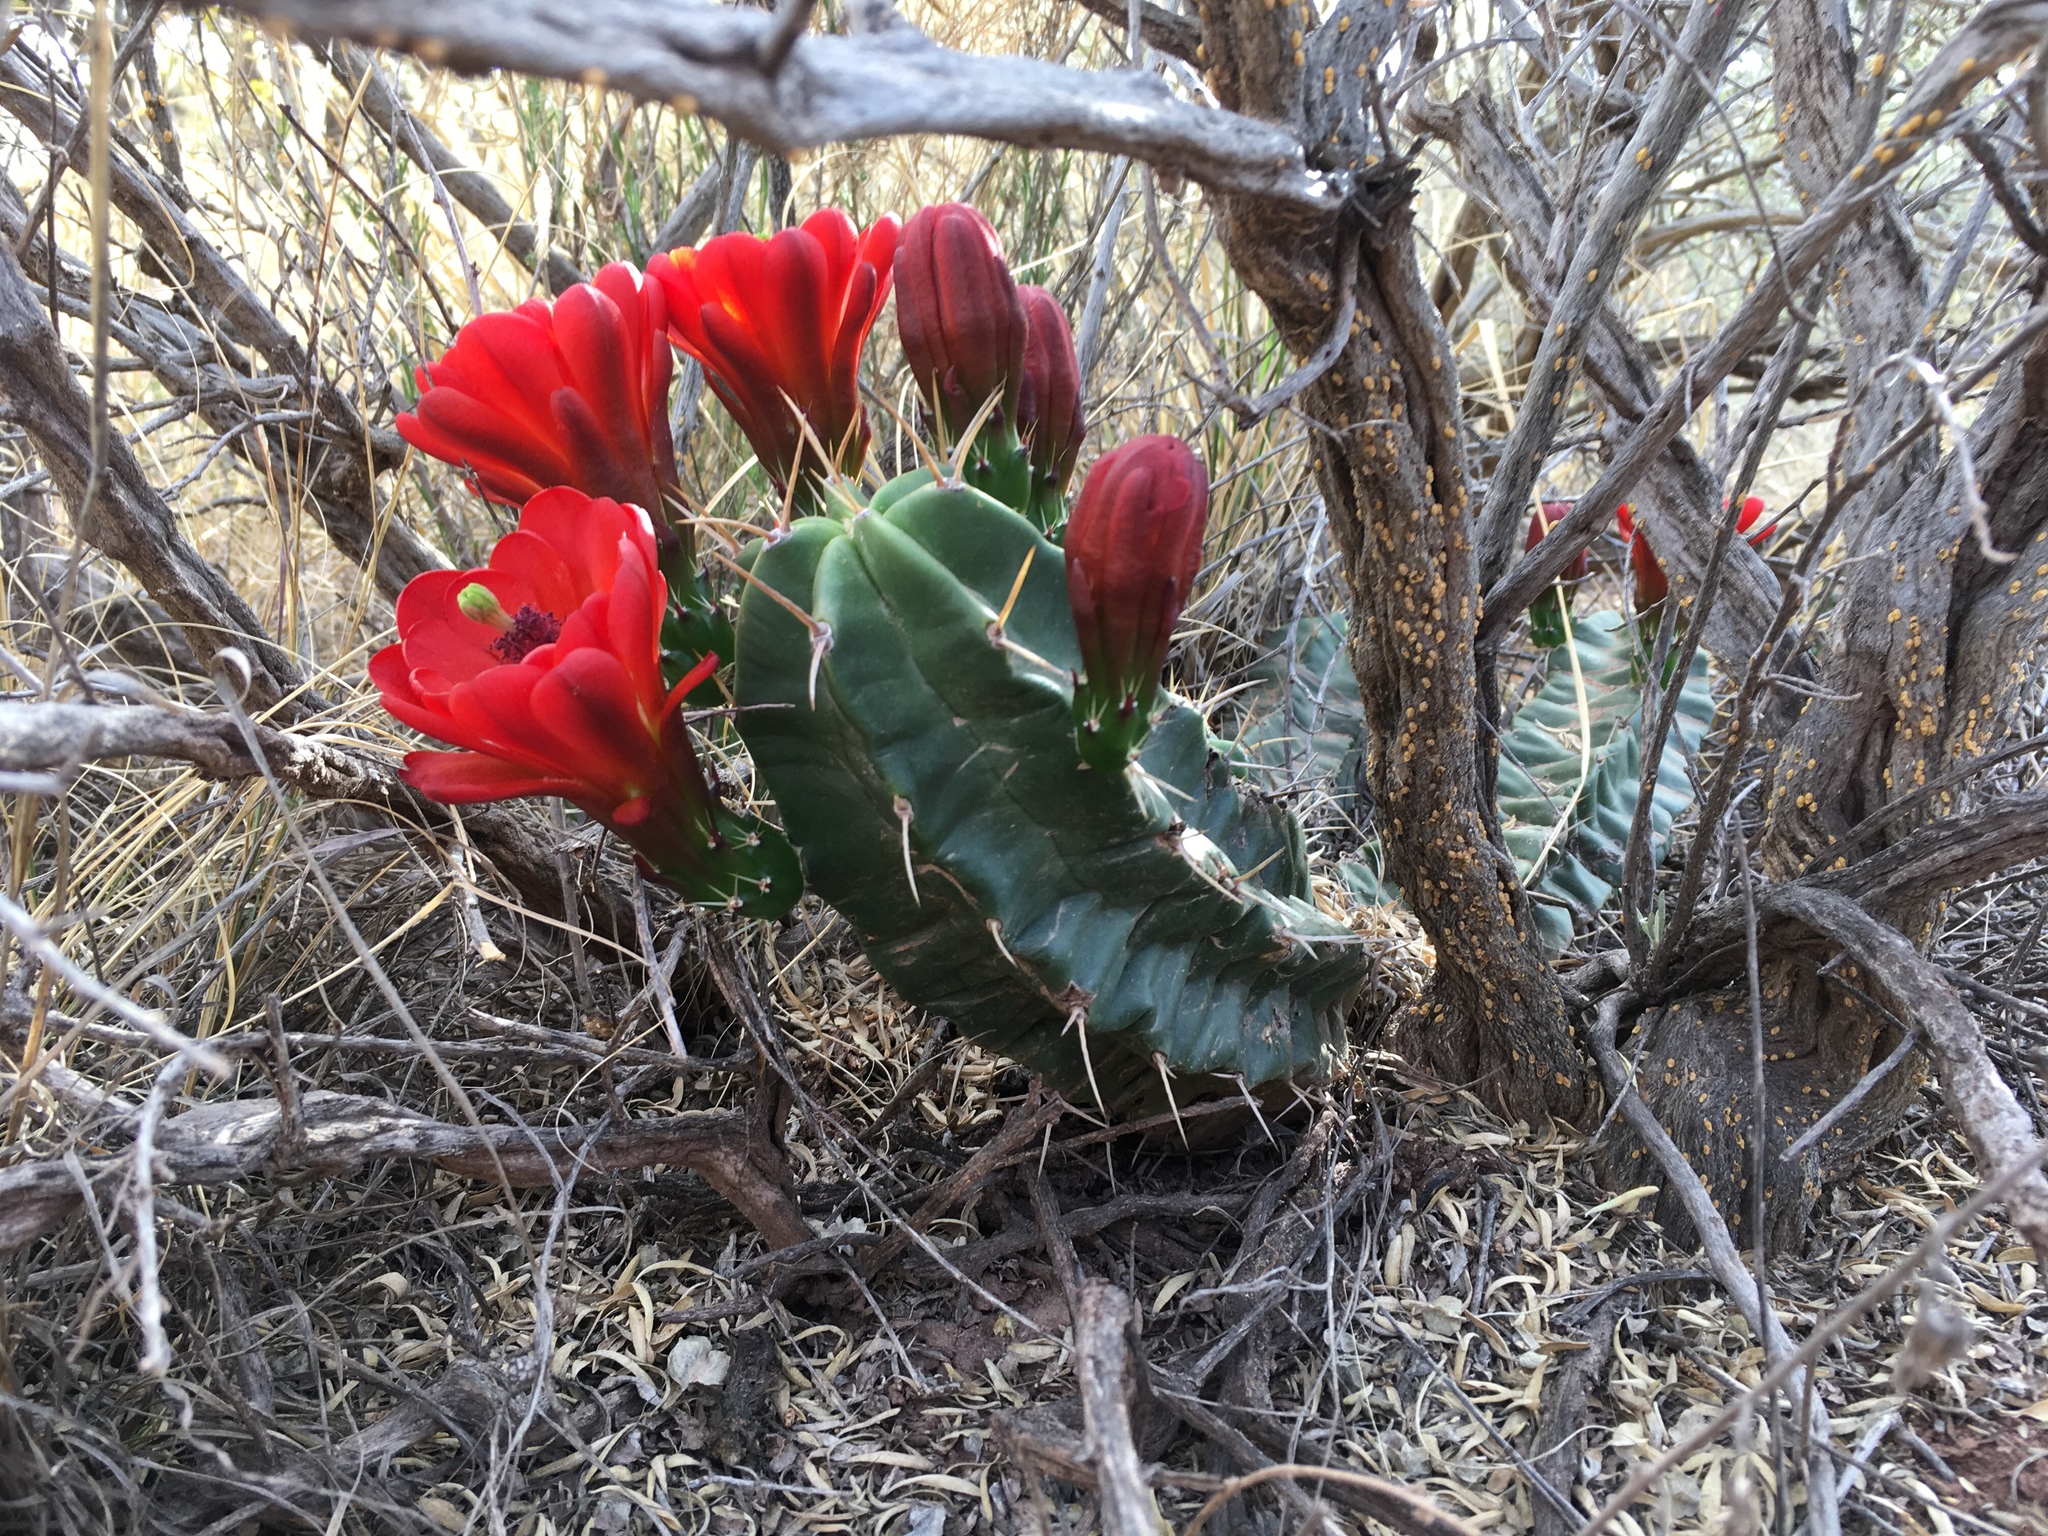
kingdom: Plantae
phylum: Tracheophyta
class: Magnoliopsida
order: Caryophyllales
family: Cactaceae
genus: Echinocereus
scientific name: Echinocereus triglochidiatus
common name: Claretcup hedgehog
